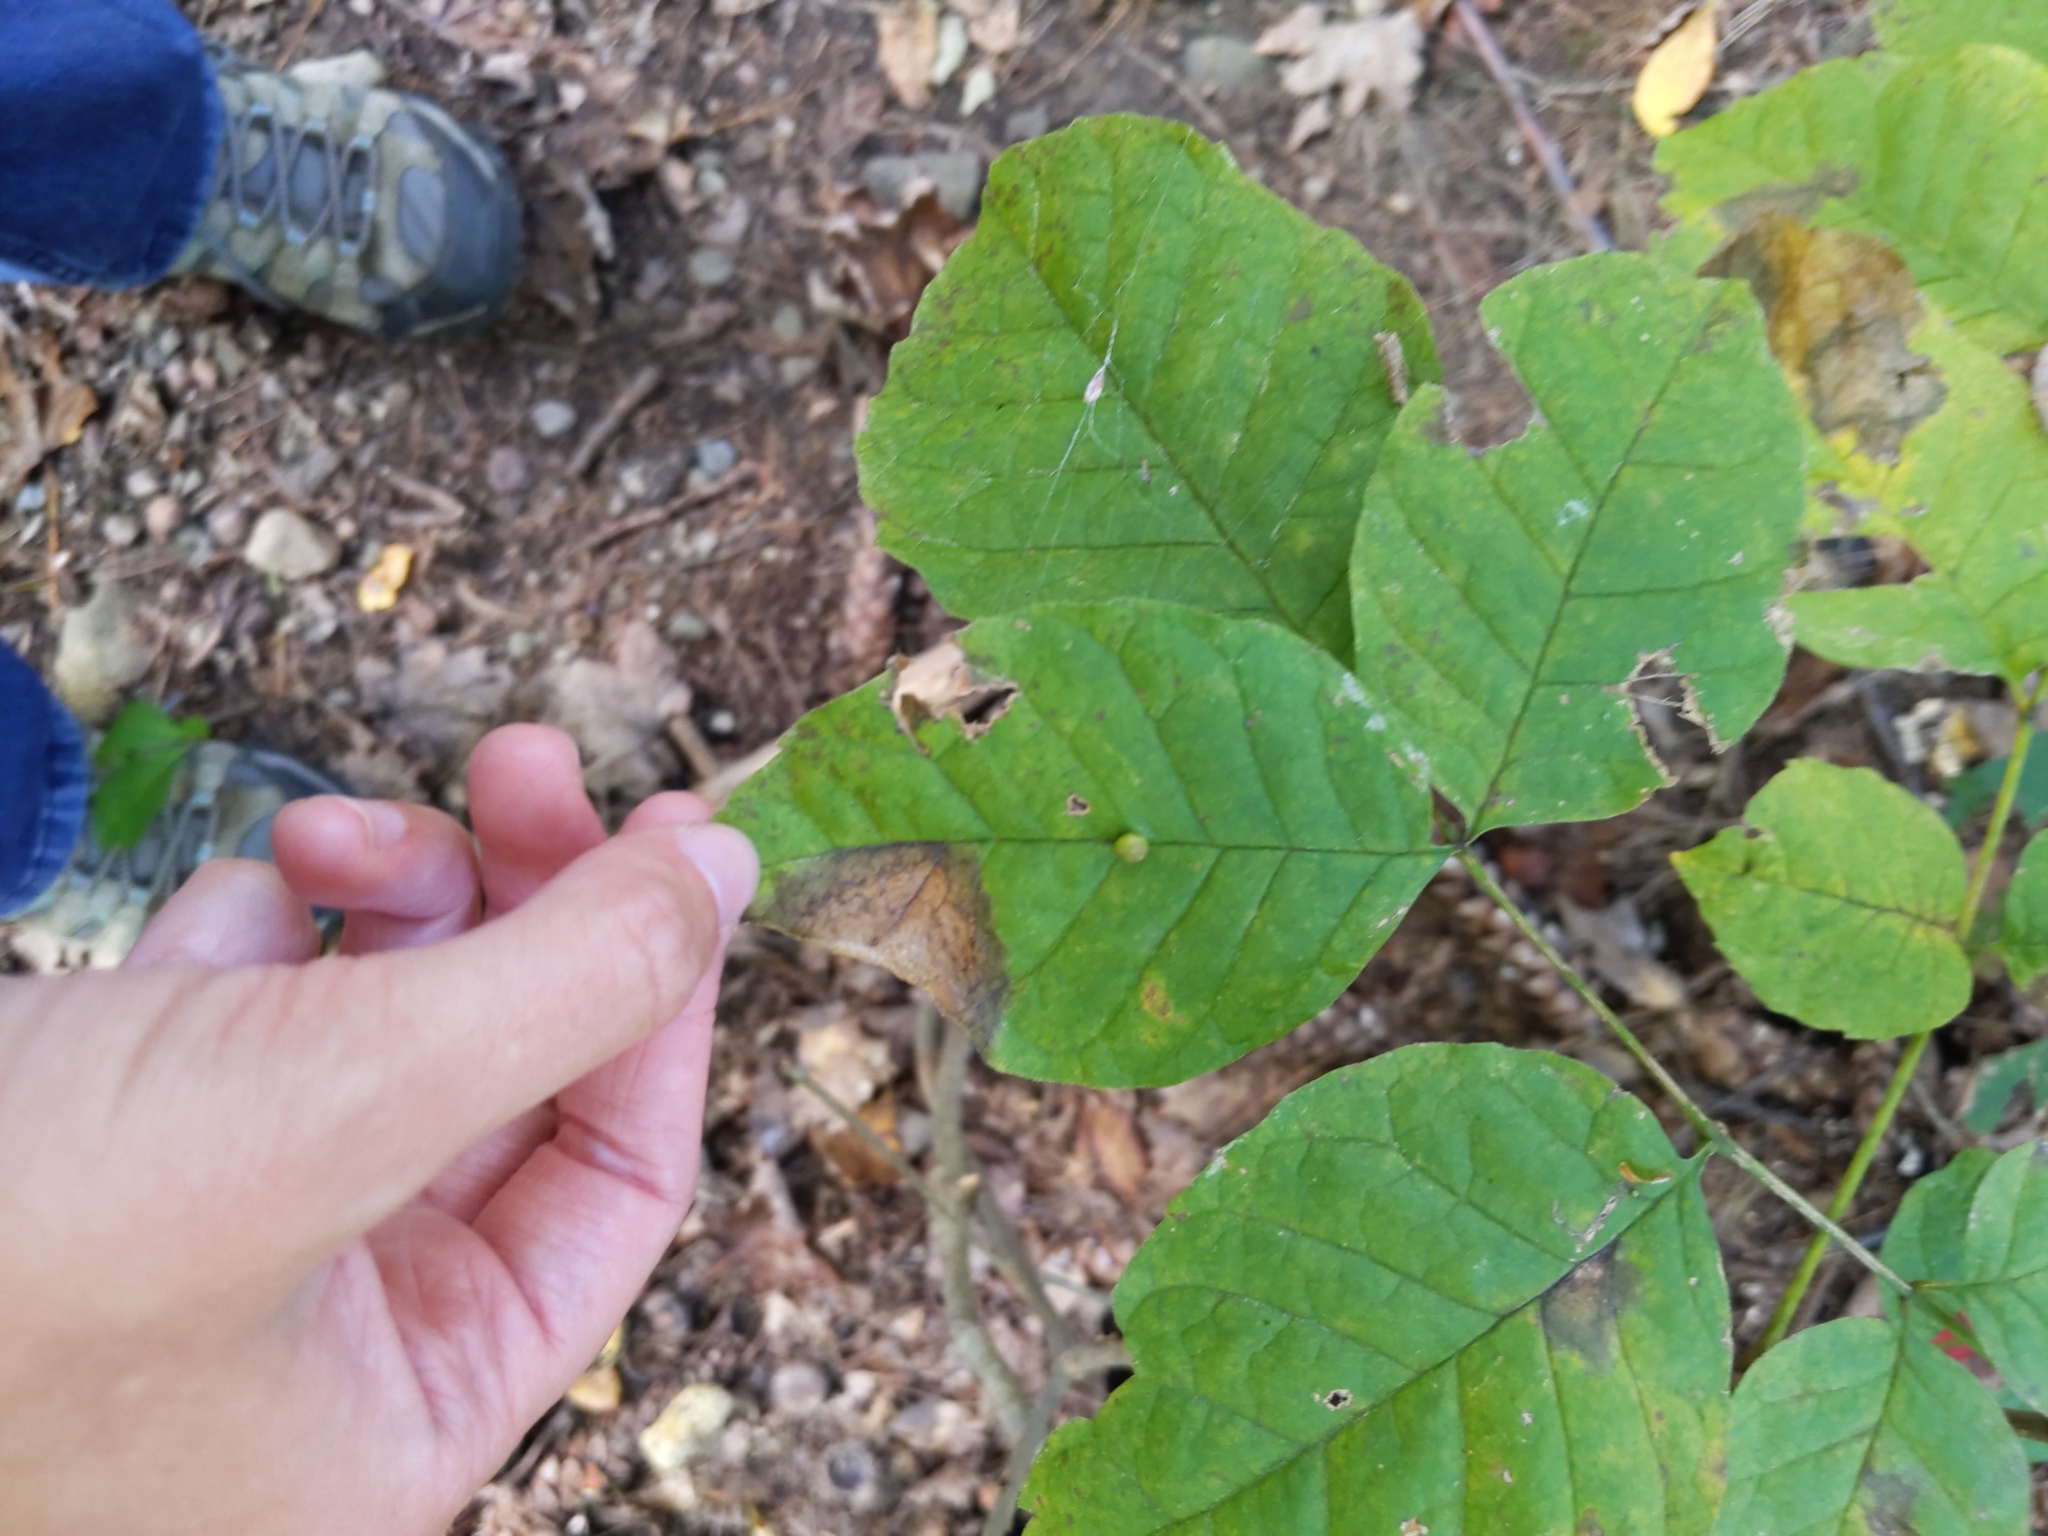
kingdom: Animalia
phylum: Arthropoda
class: Insecta
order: Diptera
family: Cecidomyiidae
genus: Dasineura
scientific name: Dasineura pellex
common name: Ash bullet gall midge
